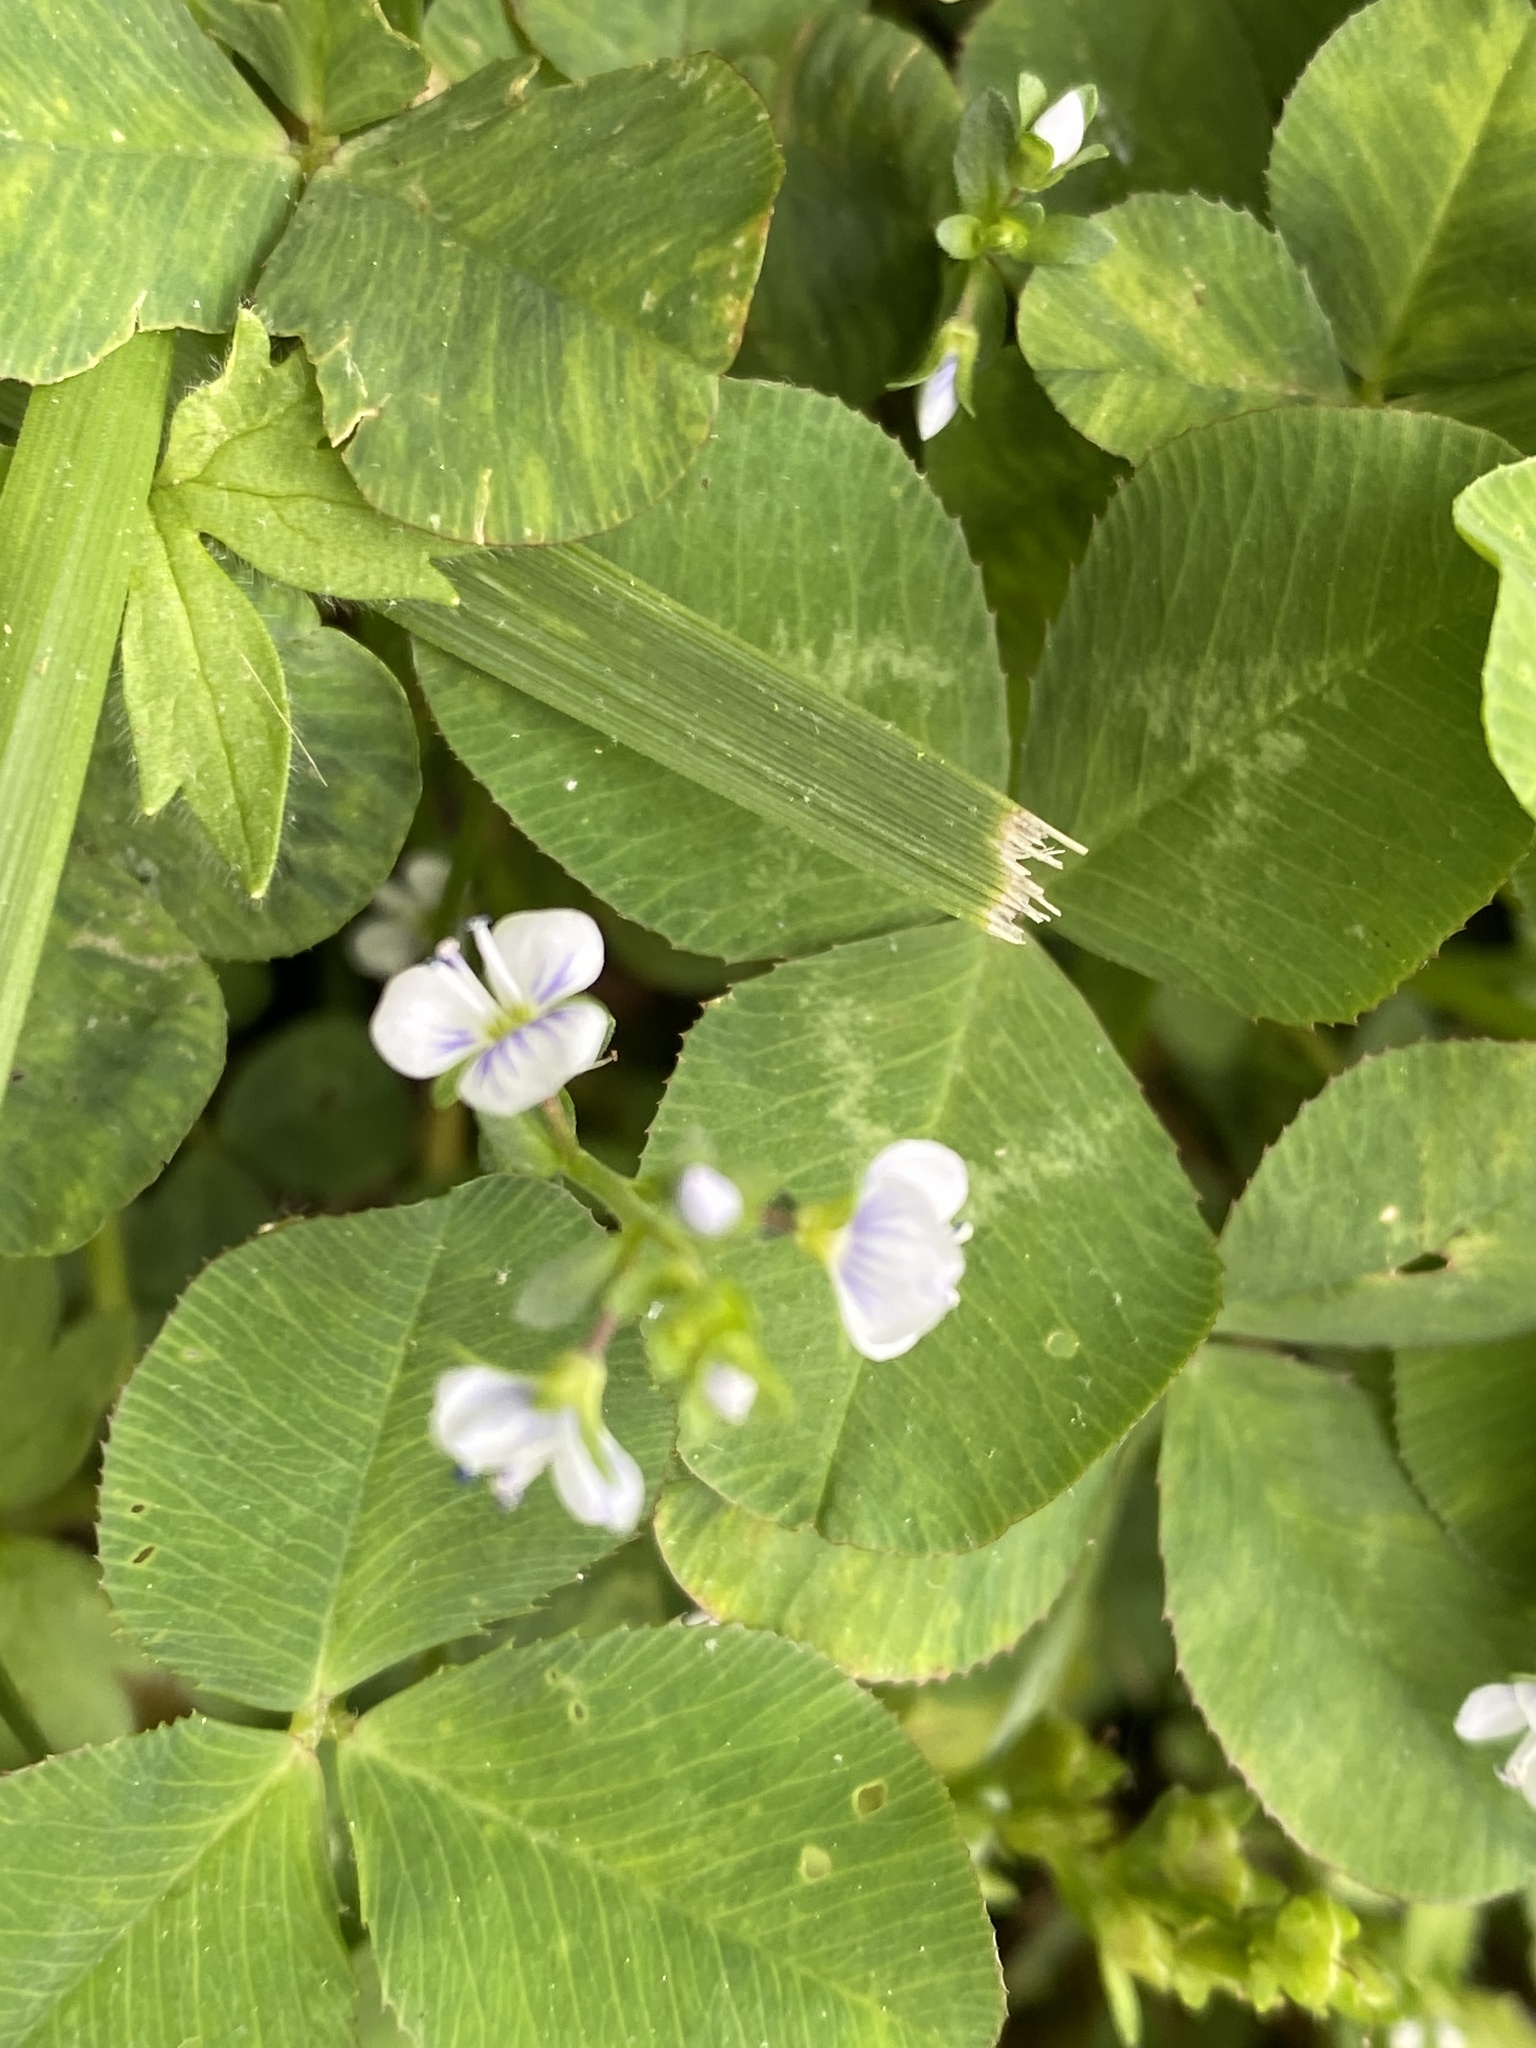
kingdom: Plantae
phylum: Tracheophyta
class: Magnoliopsida
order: Lamiales
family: Plantaginaceae
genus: Veronica
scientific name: Veronica serpyllifolia
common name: Thyme-leaved speedwell
